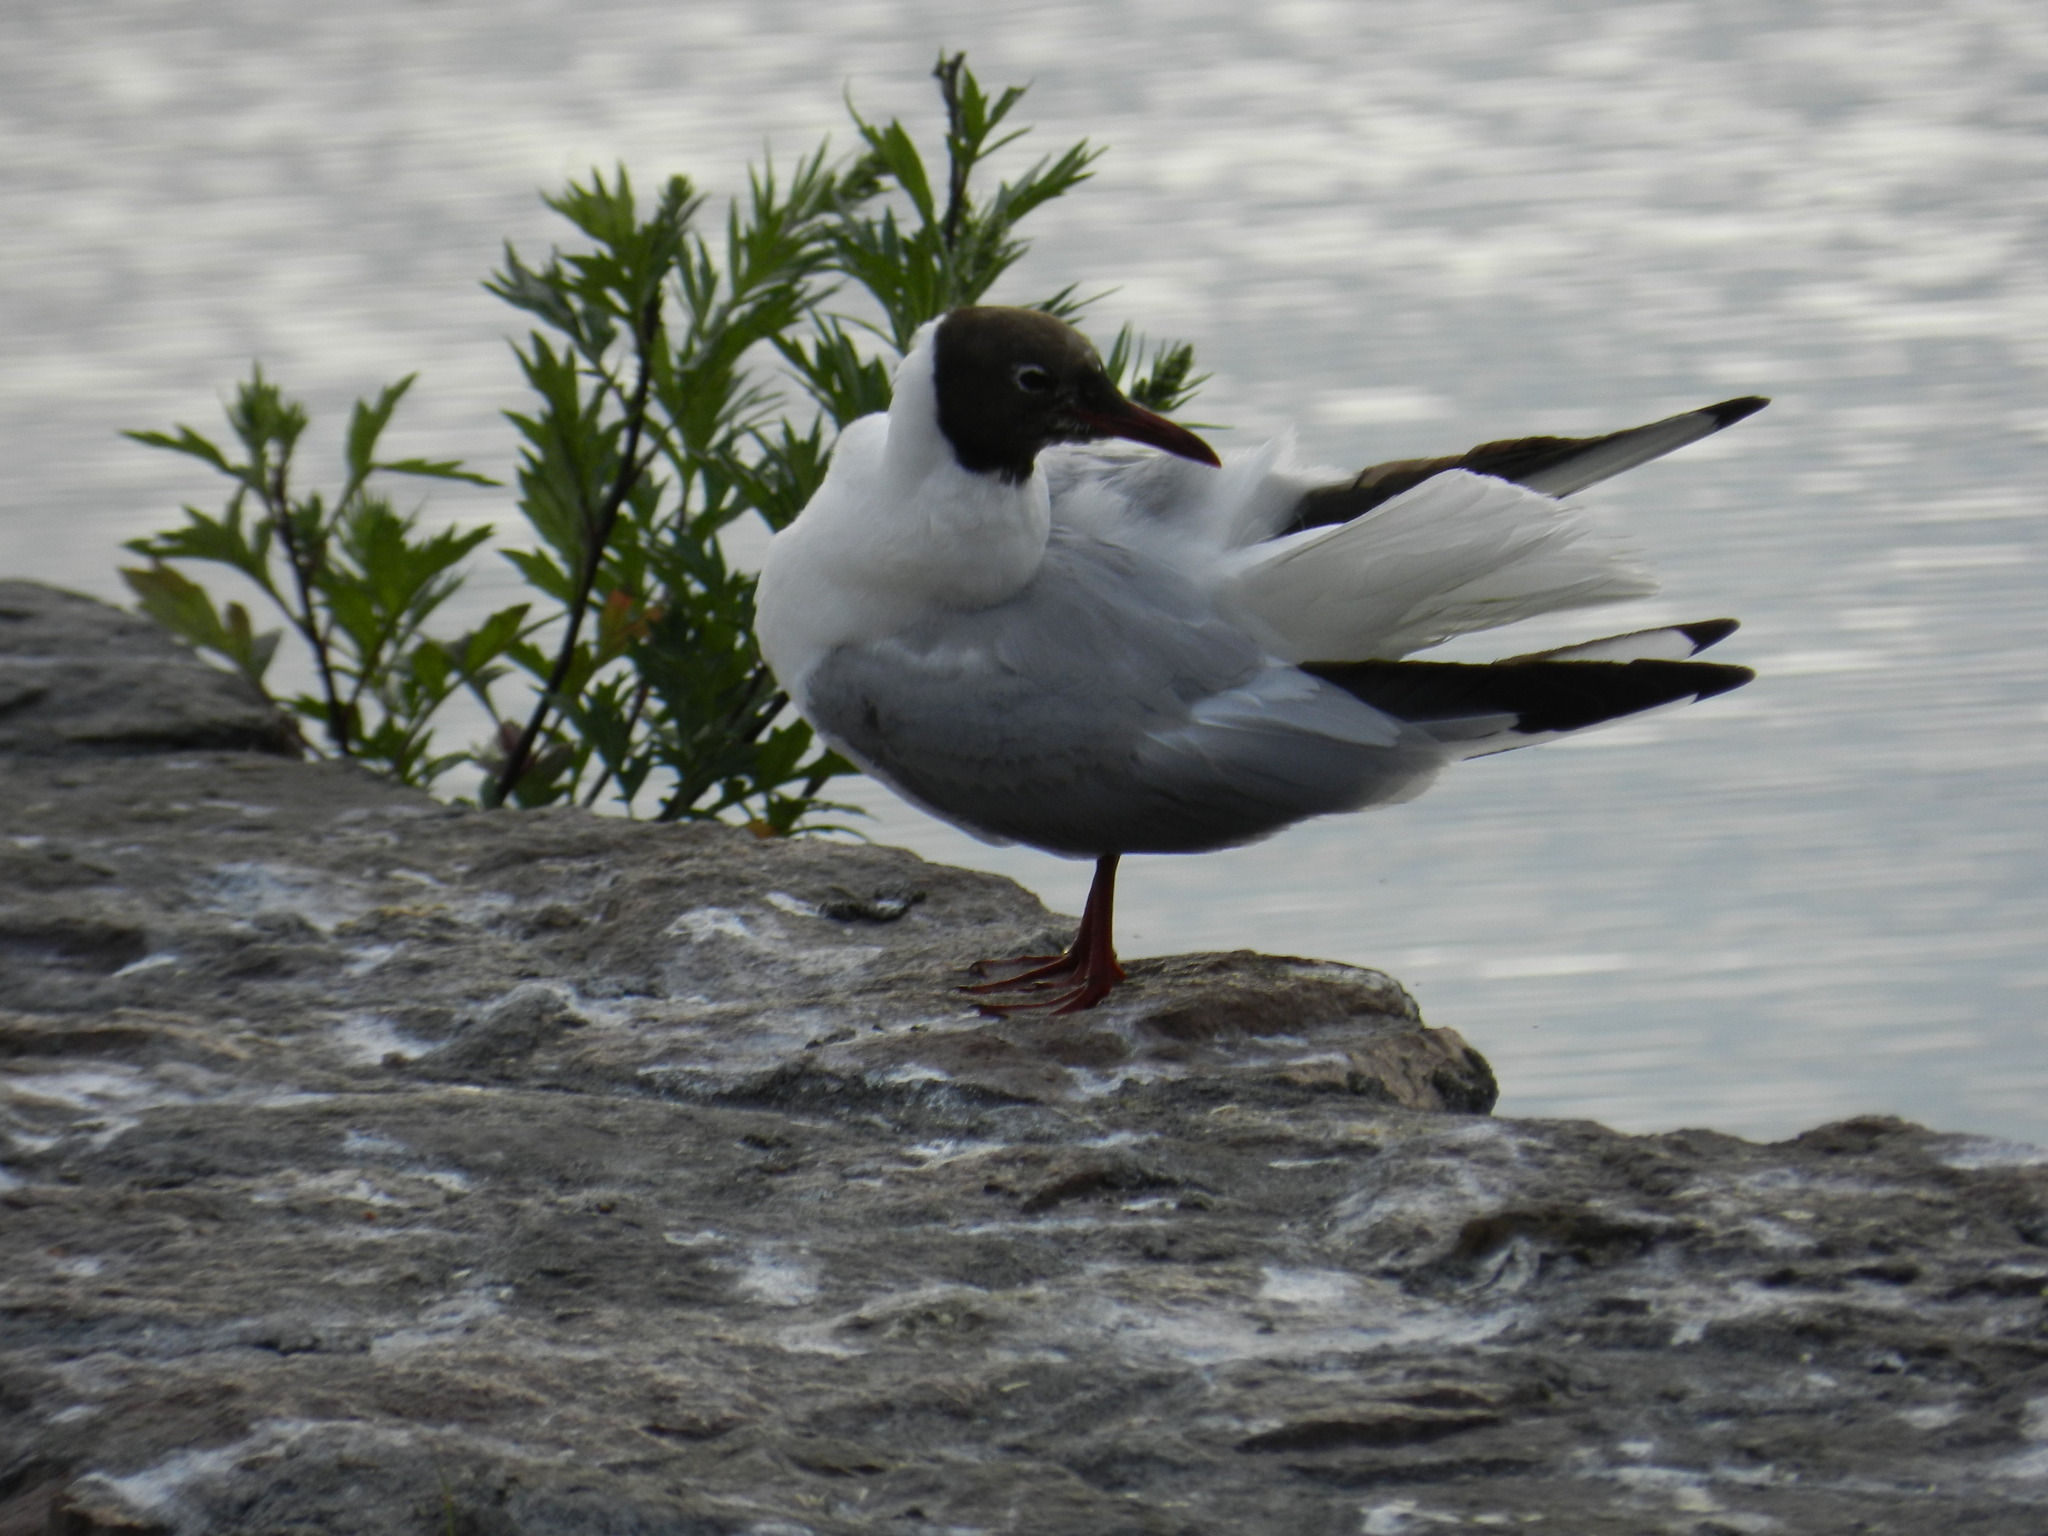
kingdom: Animalia
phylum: Chordata
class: Aves
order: Charadriiformes
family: Laridae
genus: Chroicocephalus
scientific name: Chroicocephalus ridibundus
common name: Black-headed gull
